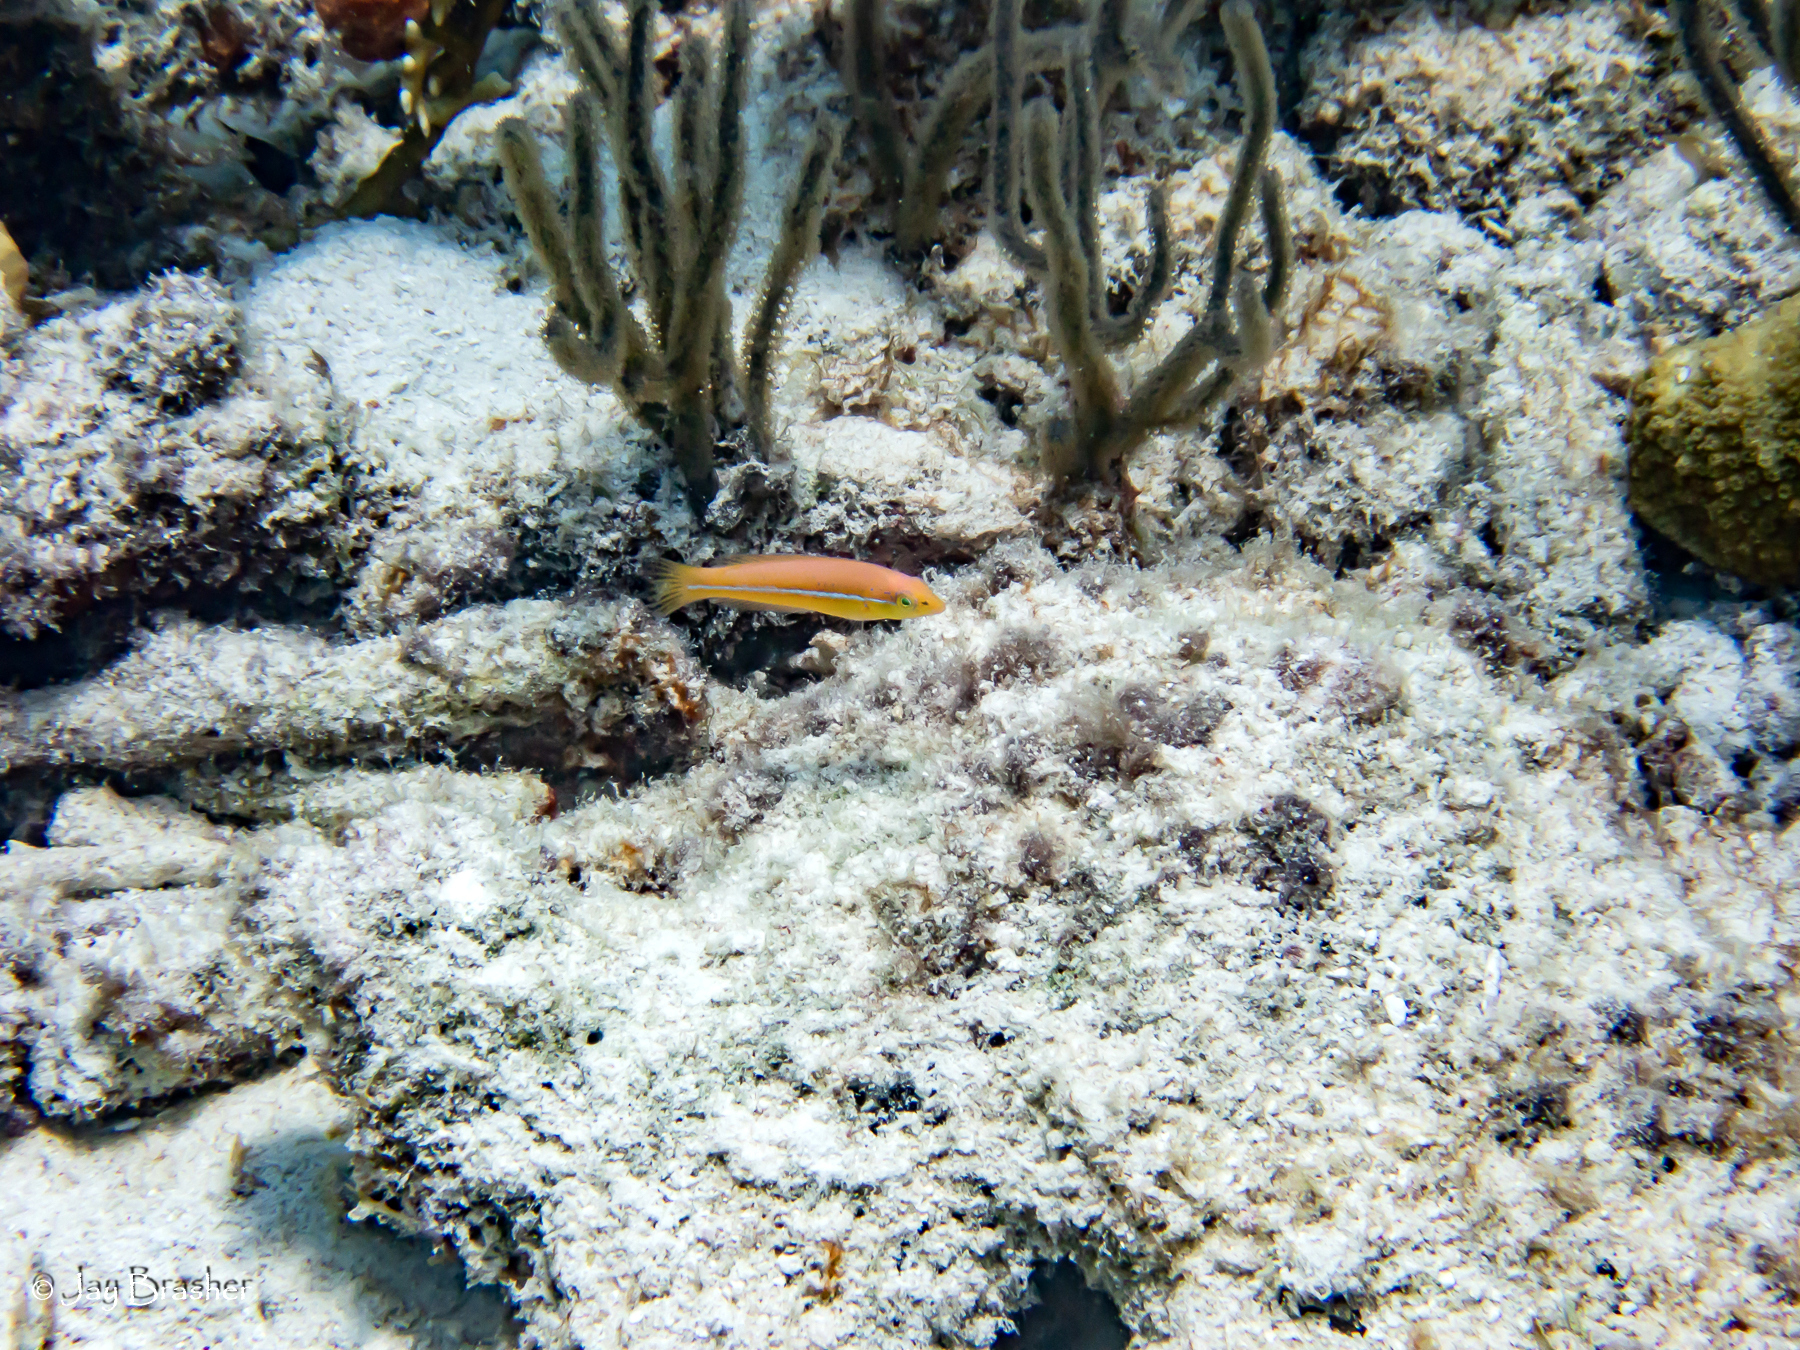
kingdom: Animalia
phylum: Chordata
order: Perciformes
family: Labridae
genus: Halichoeres
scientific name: Halichoeres garnoti
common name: Yellowhead wrasse
